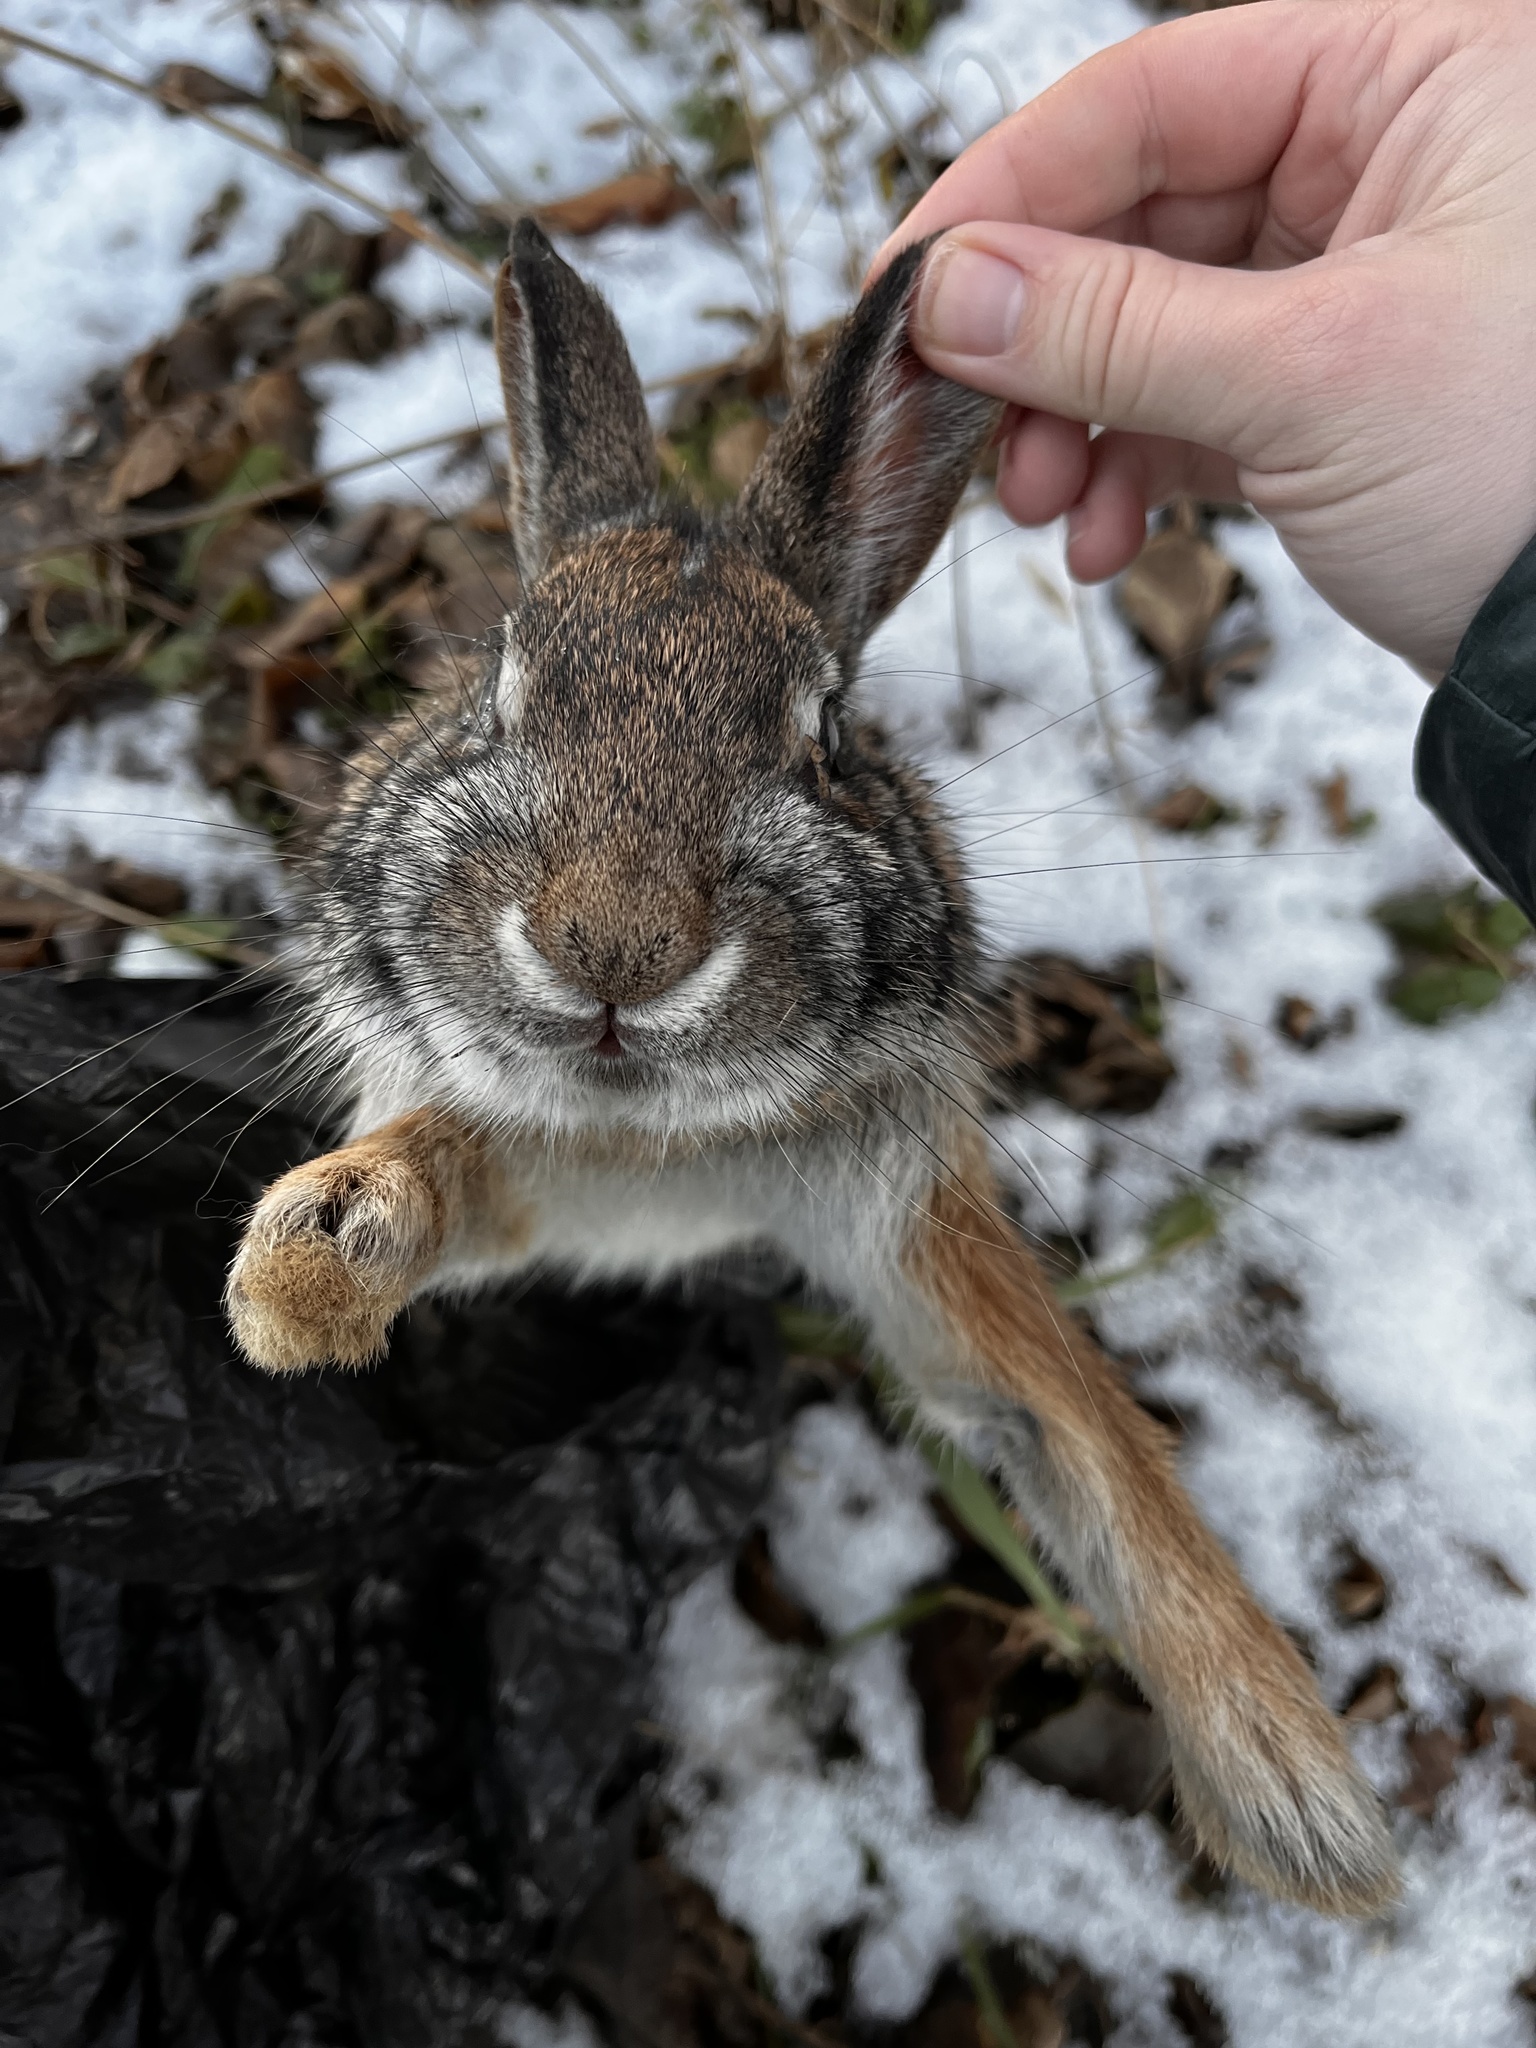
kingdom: Animalia
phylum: Chordata
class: Mammalia
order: Lagomorpha
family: Leporidae
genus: Sylvilagus
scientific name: Sylvilagus floridanus
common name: Eastern cottontail
